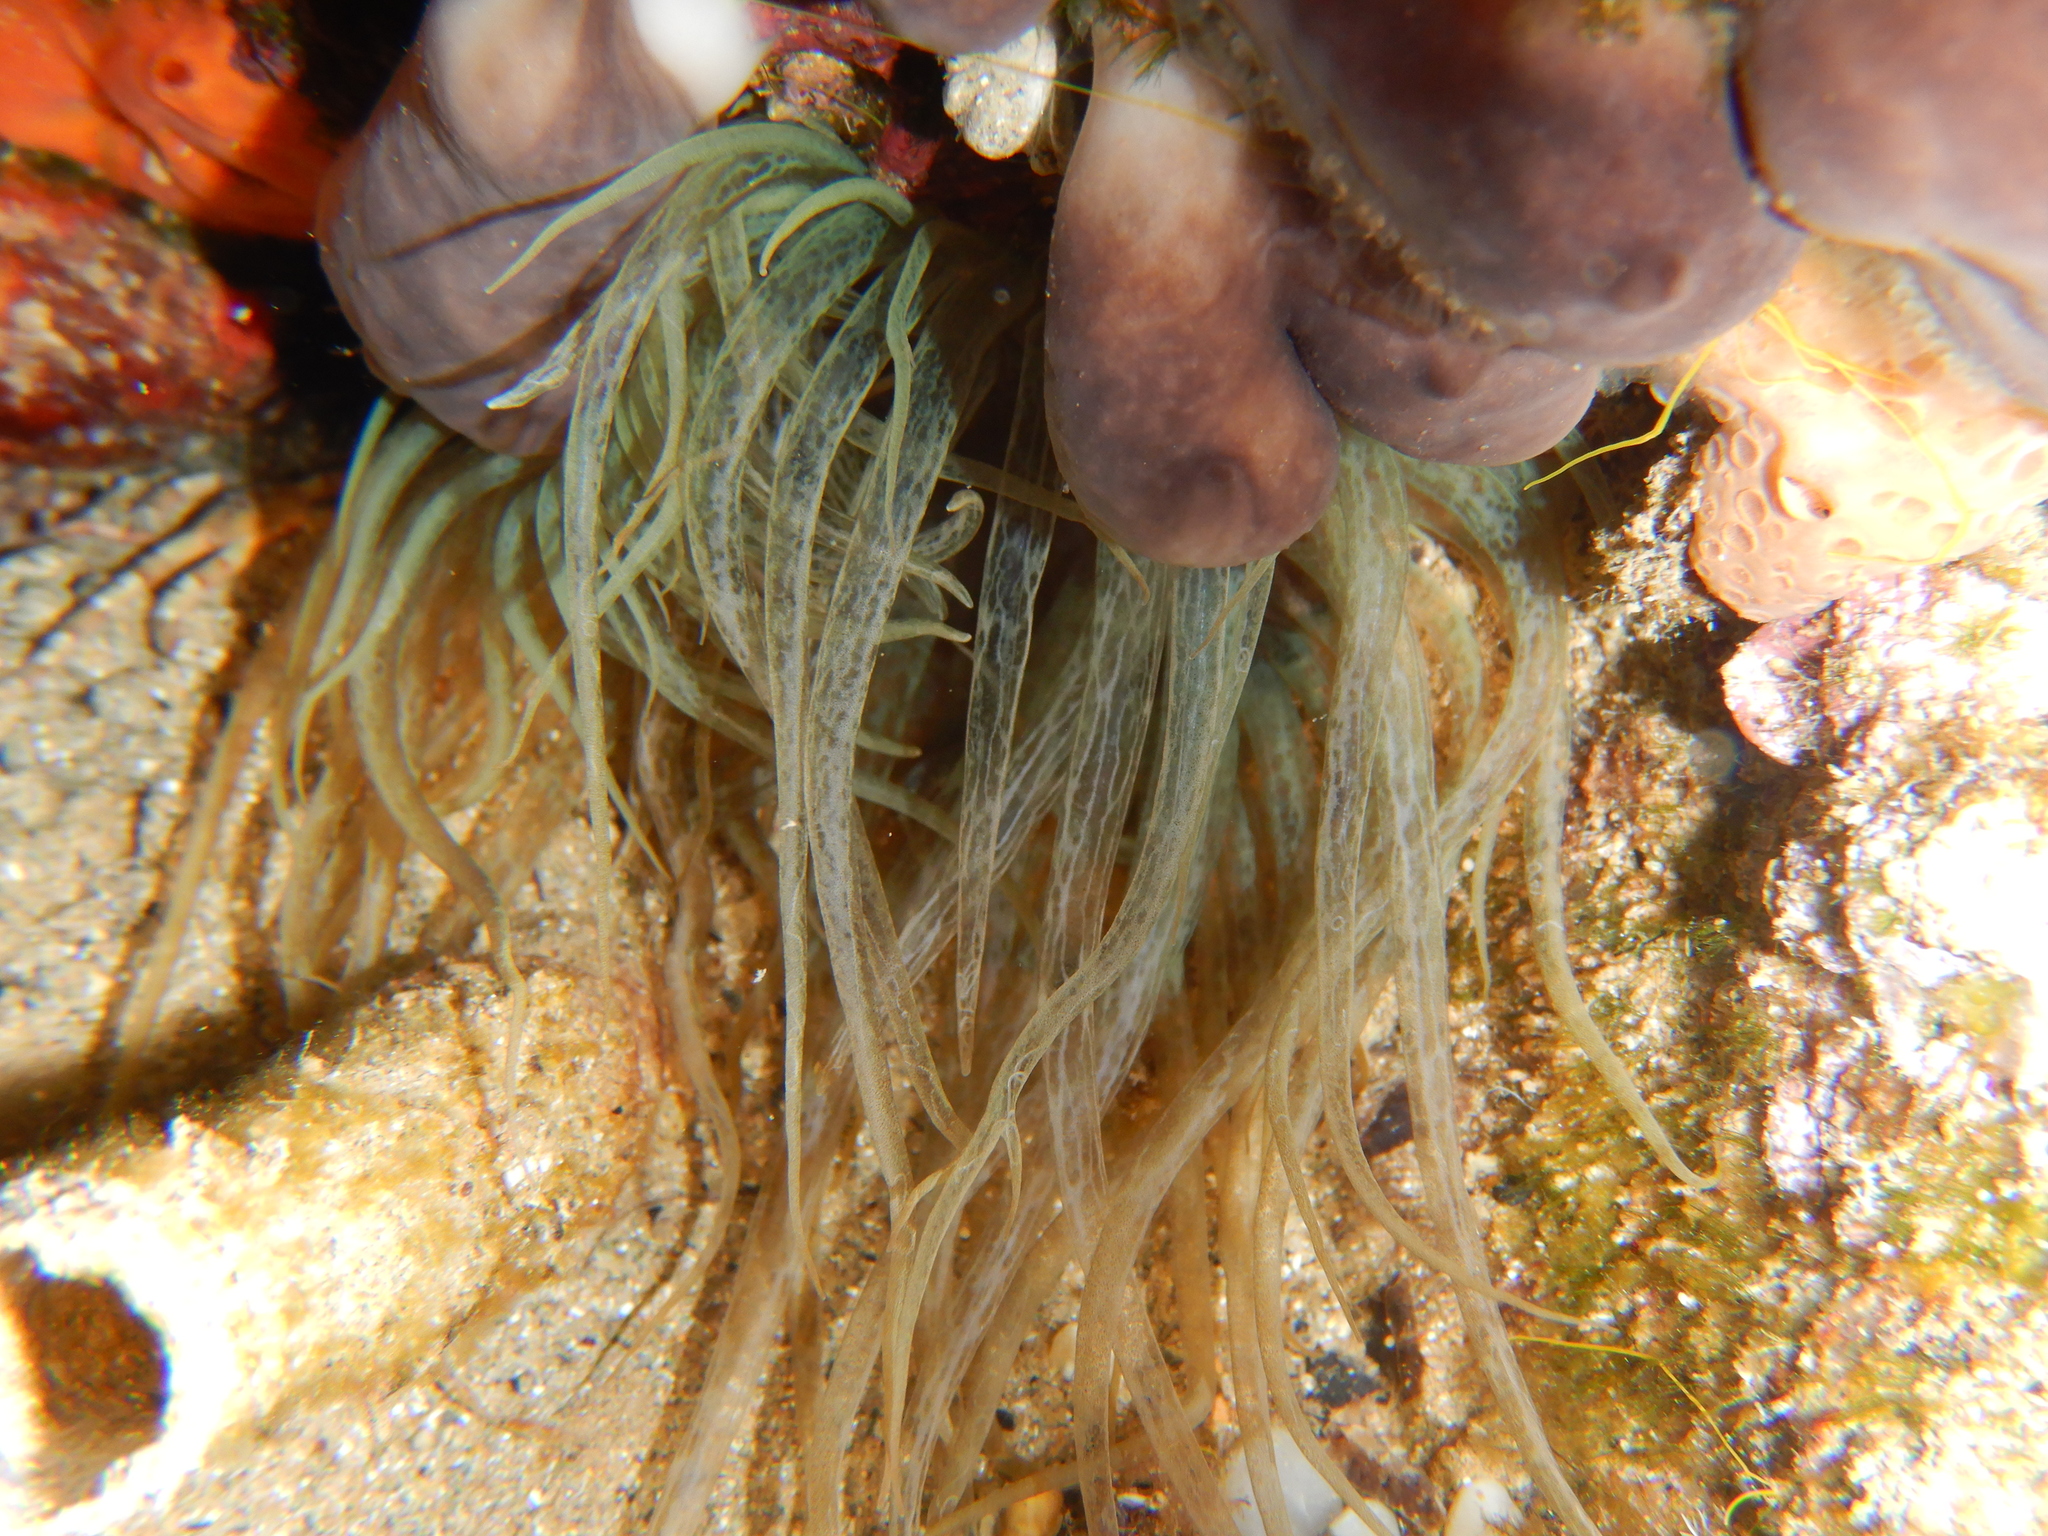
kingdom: Animalia
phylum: Cnidaria
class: Anthozoa
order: Actiniaria
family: Aiptasiidae
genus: Aiptasia
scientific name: Aiptasia mutabilis
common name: Trumpet anemone
